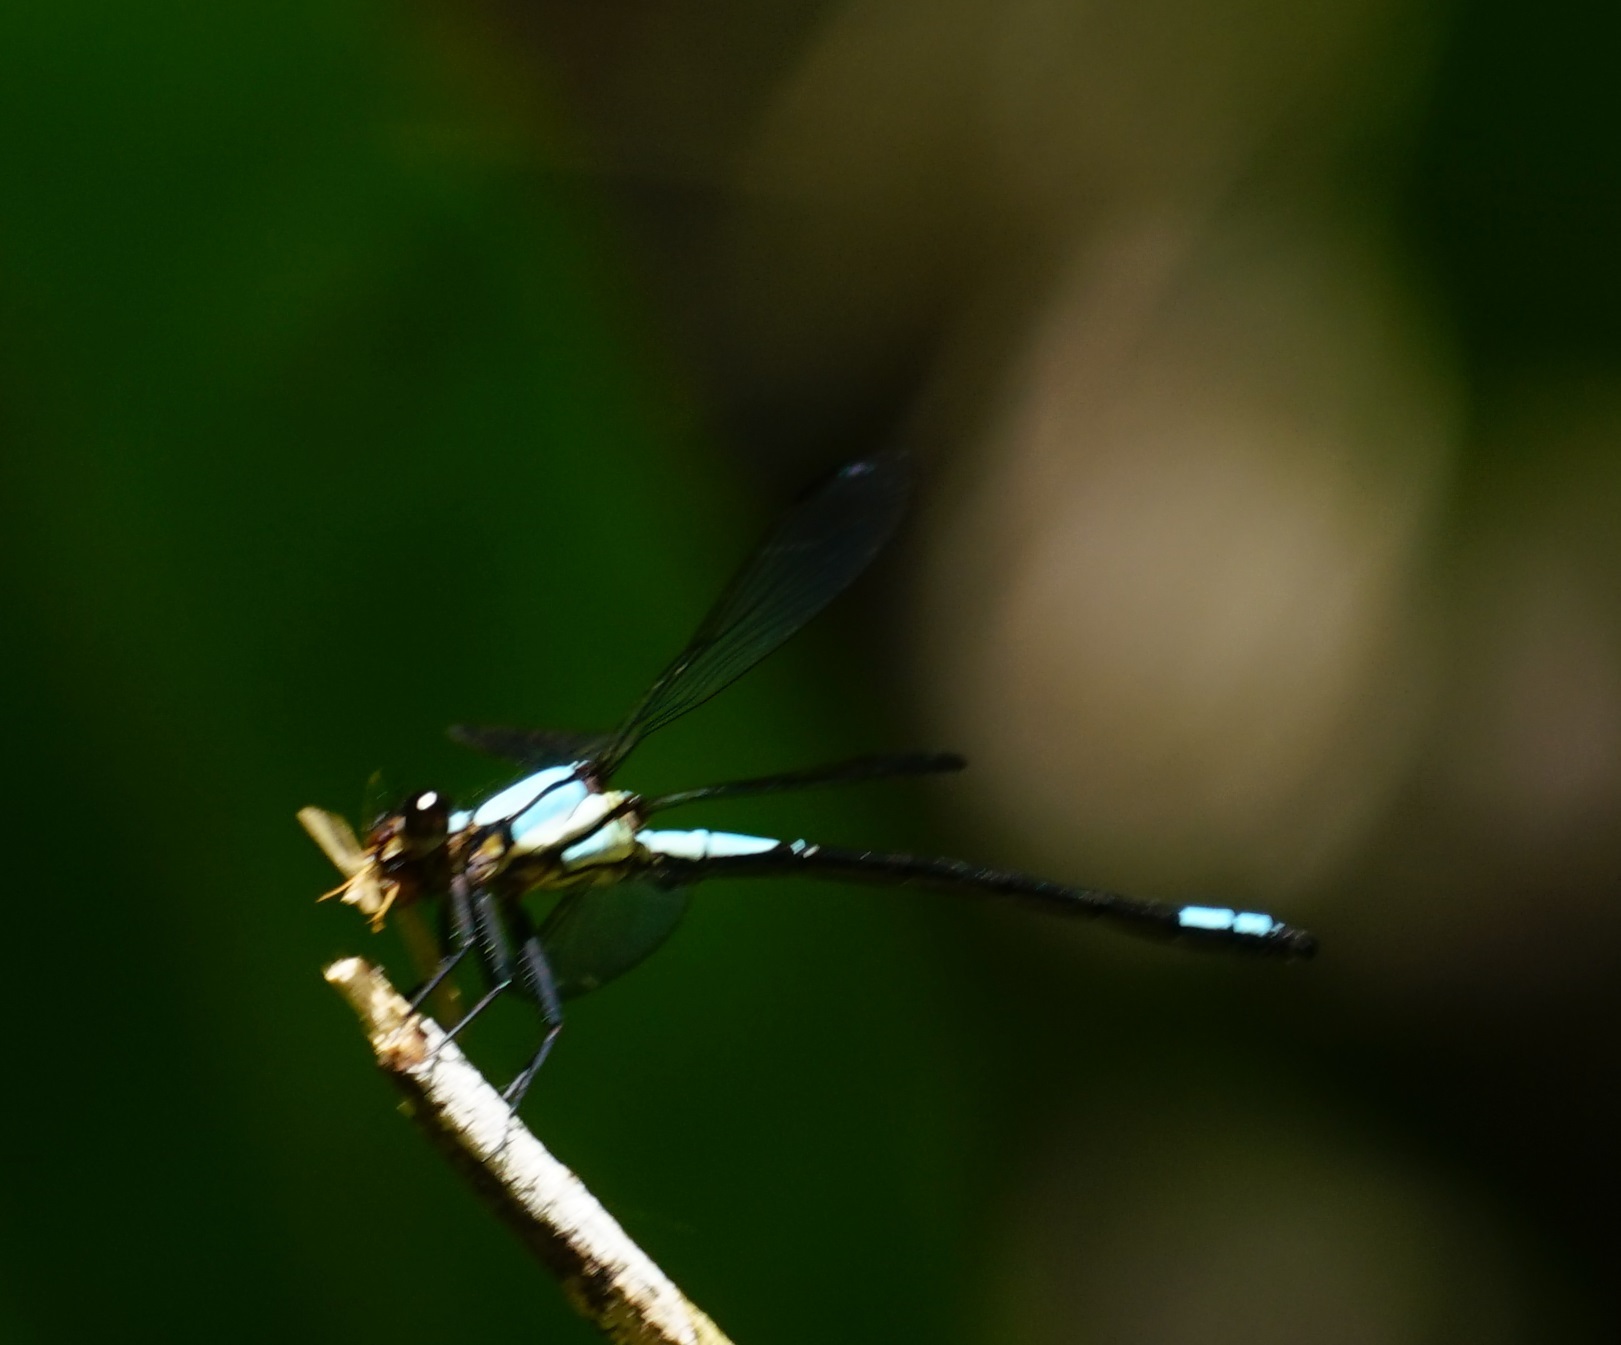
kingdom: Animalia
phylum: Arthropoda
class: Insecta
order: Odonata
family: Lestoideidae
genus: Diphlebia
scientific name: Diphlebia euphoeoides
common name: Tropical rockmaster
